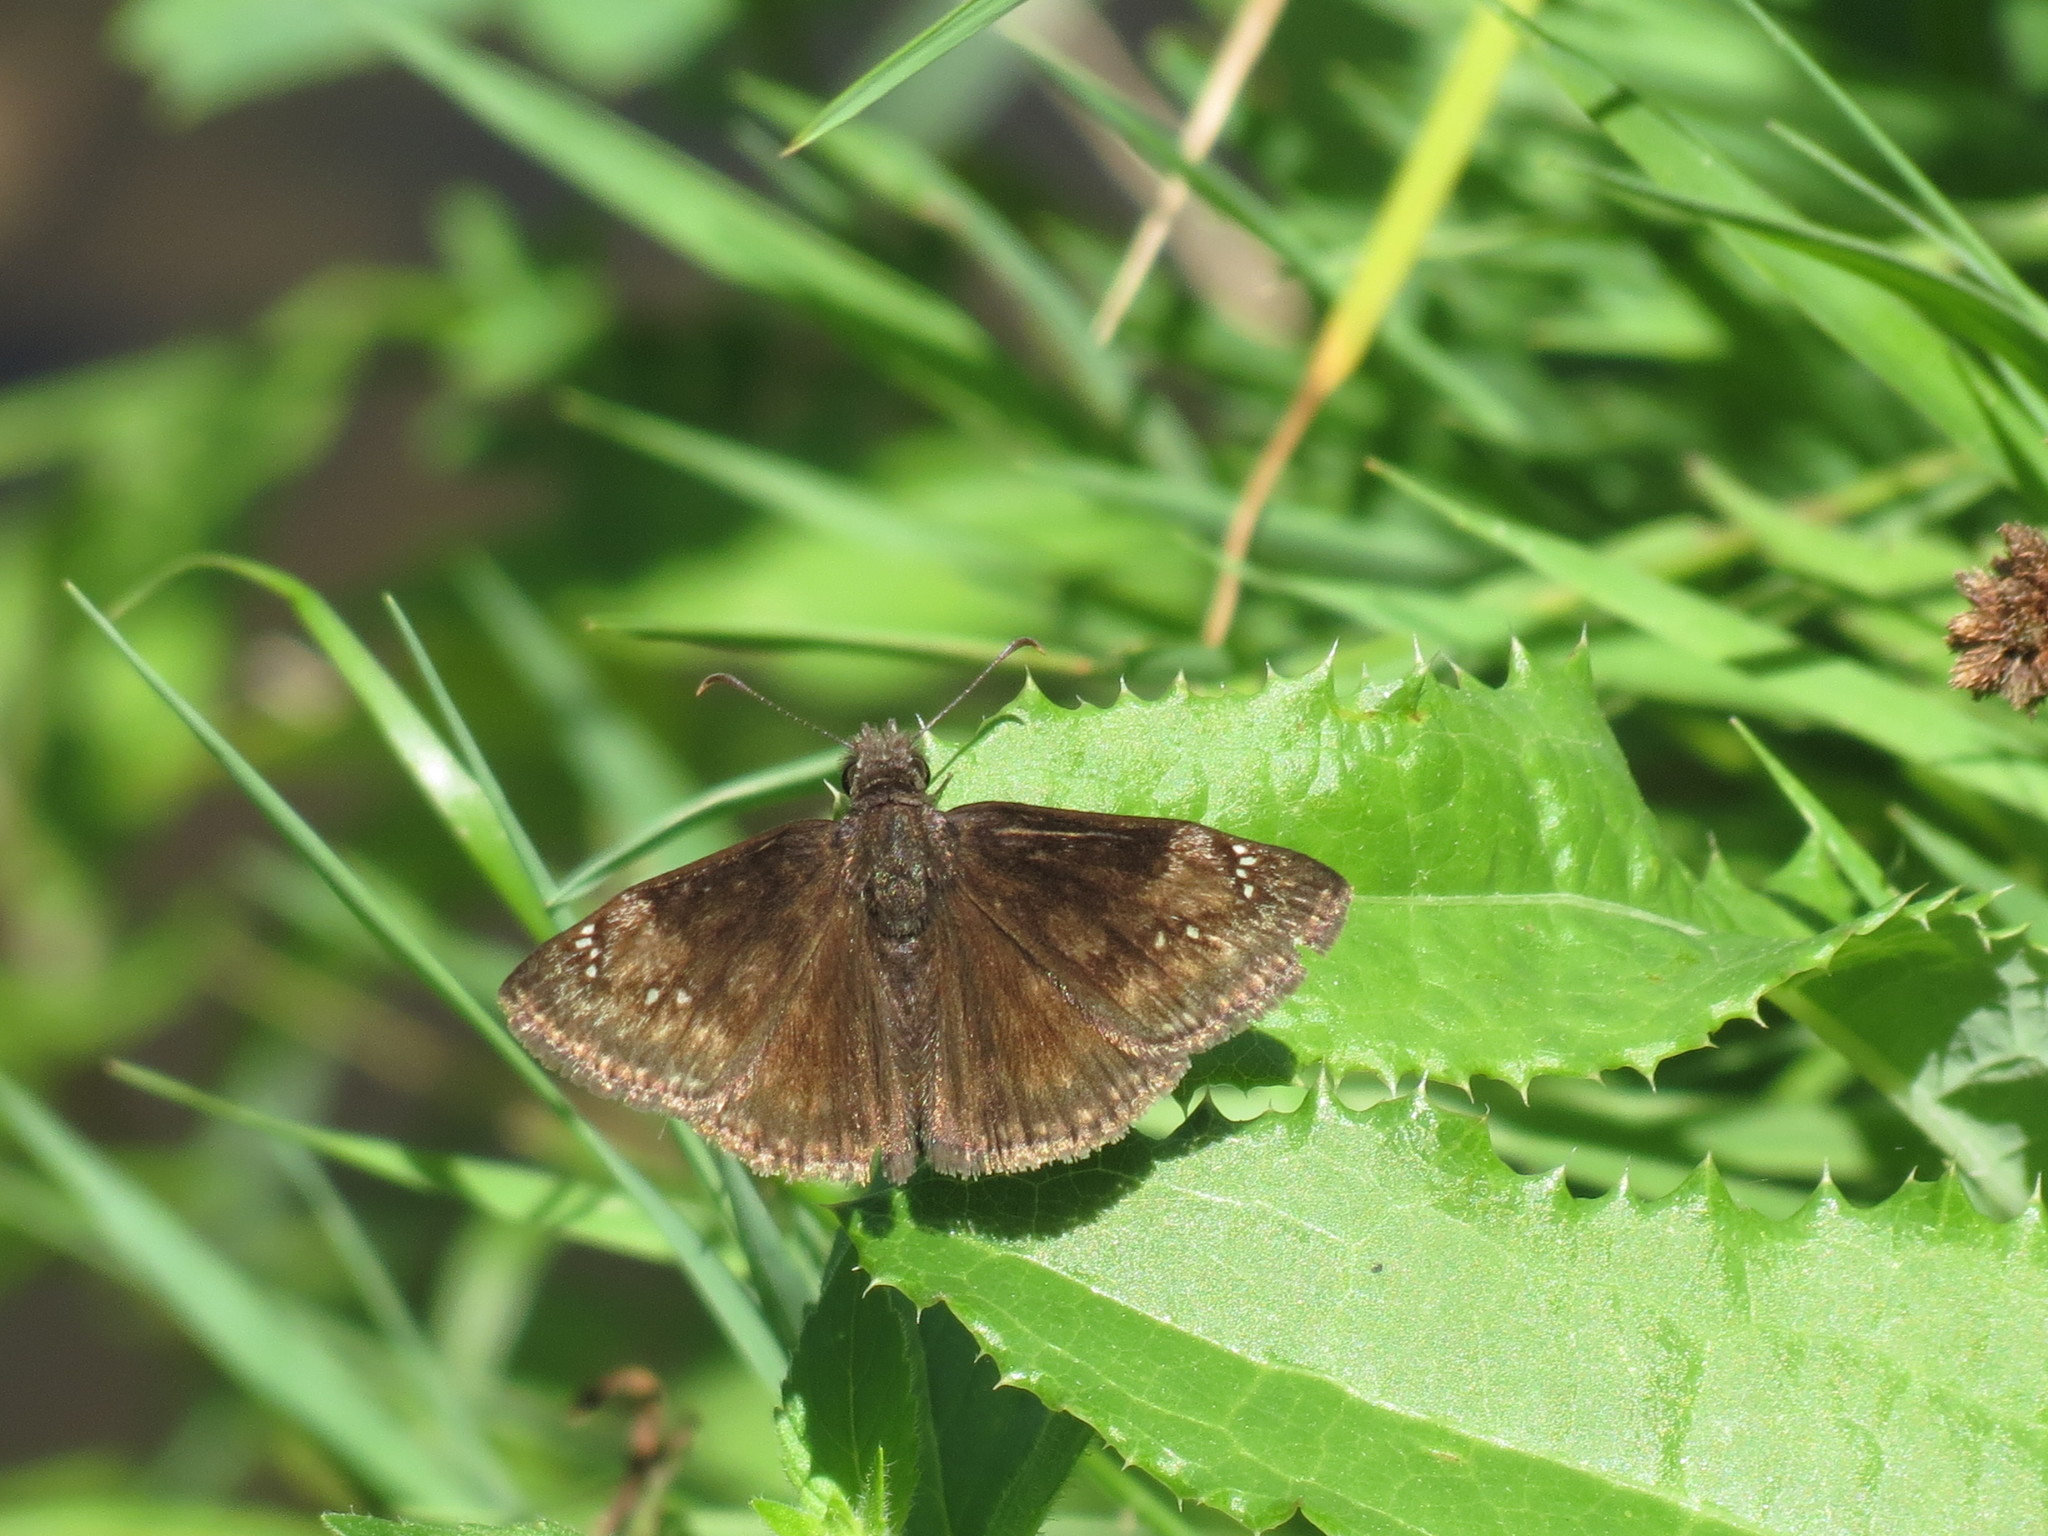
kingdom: Animalia
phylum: Arthropoda
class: Insecta
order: Lepidoptera
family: Hesperiidae
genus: Erynnis
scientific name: Erynnis baptisiae
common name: Wild indigo duskywing
